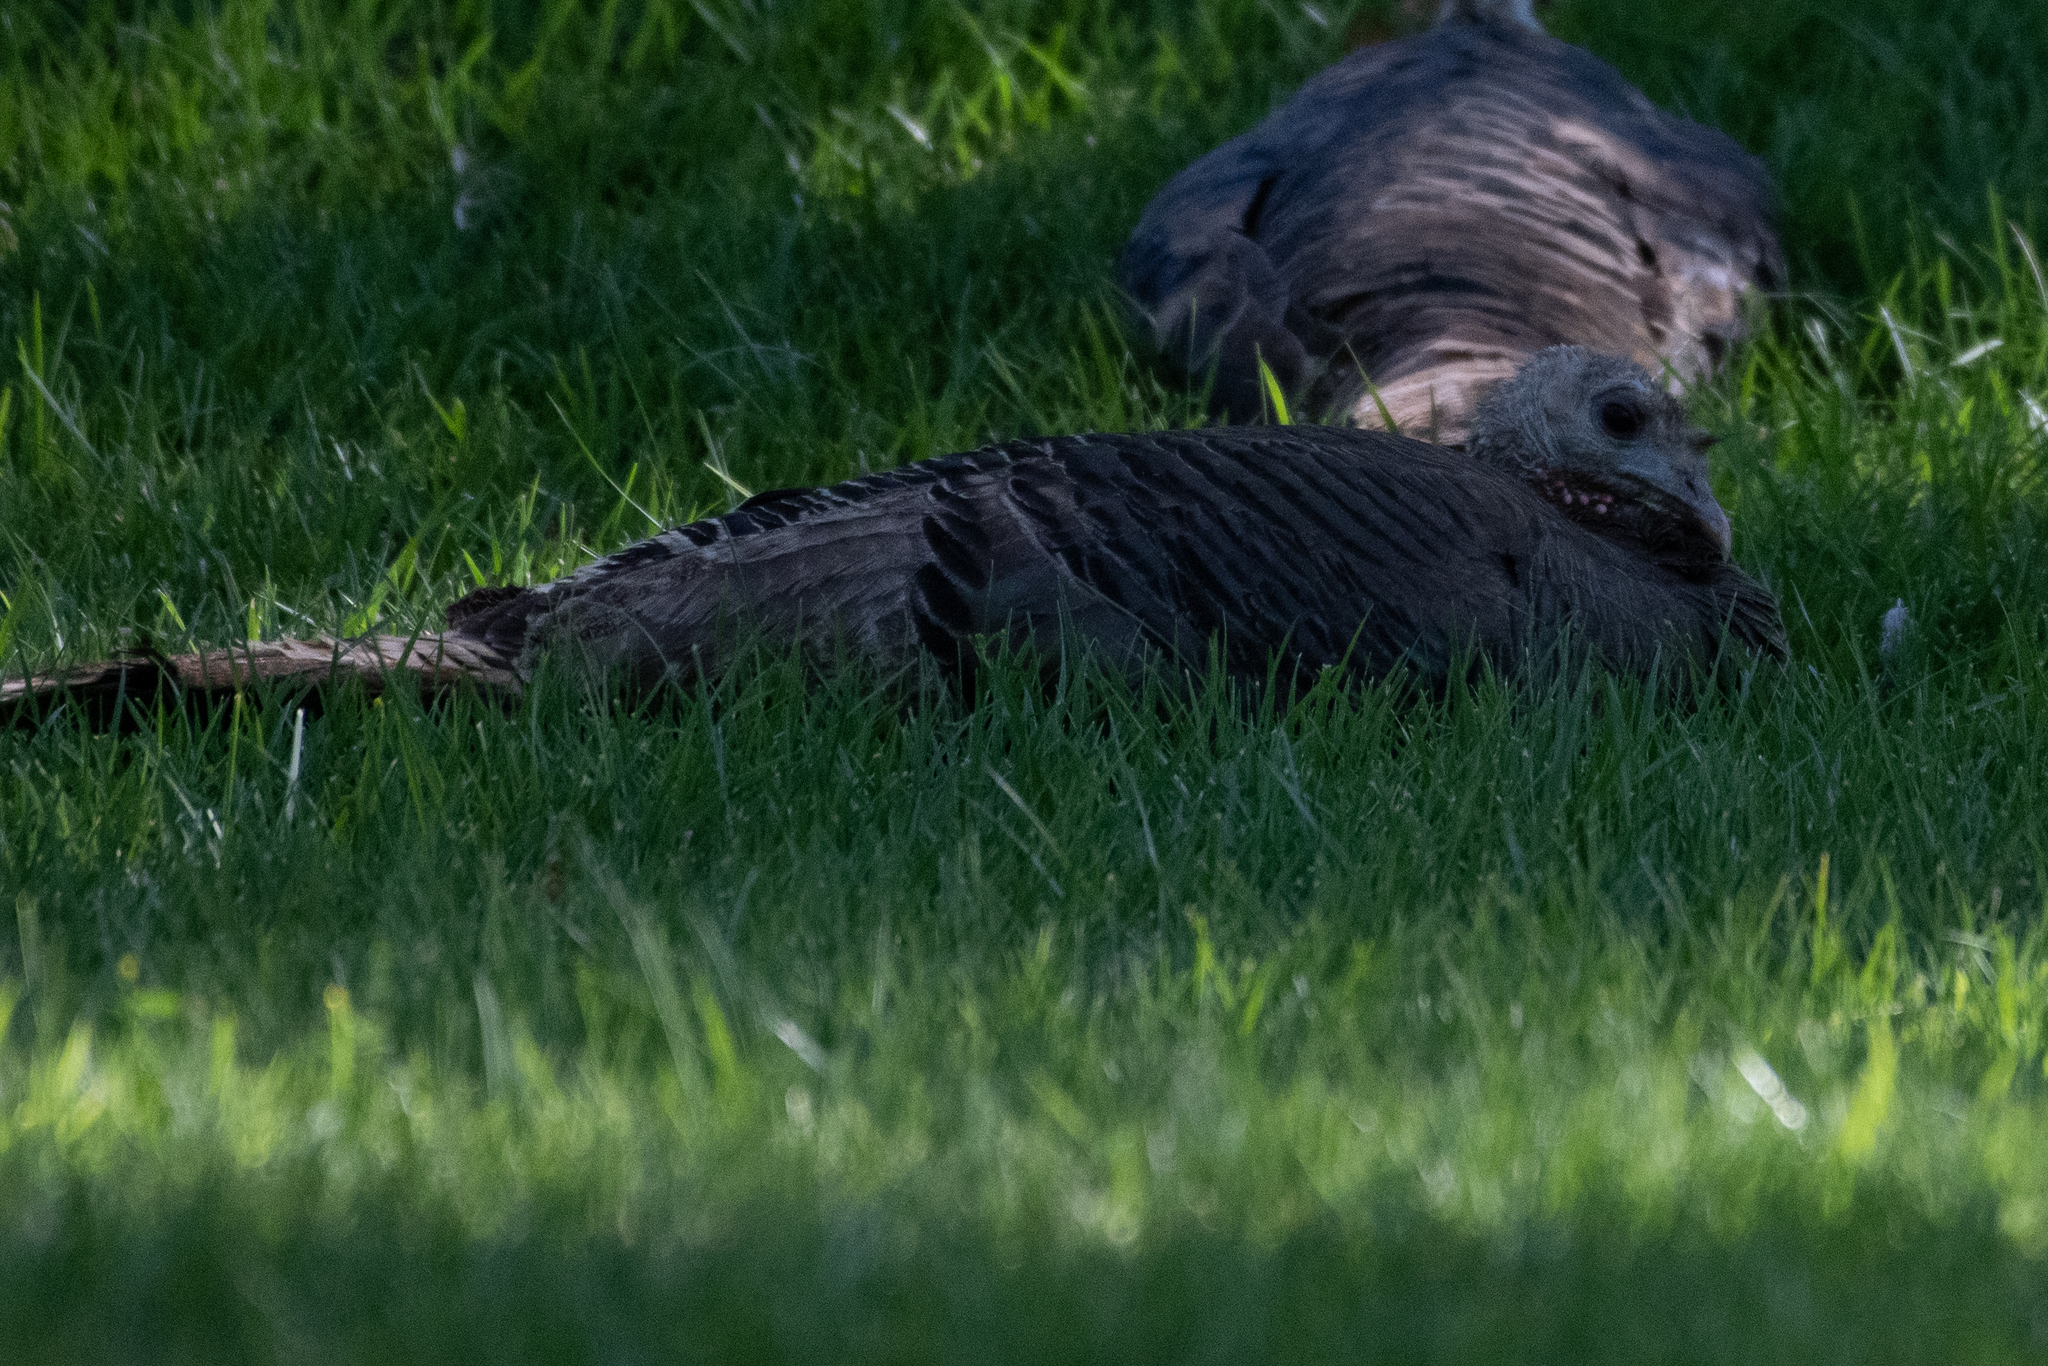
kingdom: Animalia
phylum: Chordata
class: Aves
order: Galliformes
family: Phasianidae
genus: Meleagris
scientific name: Meleagris gallopavo
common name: Wild turkey
